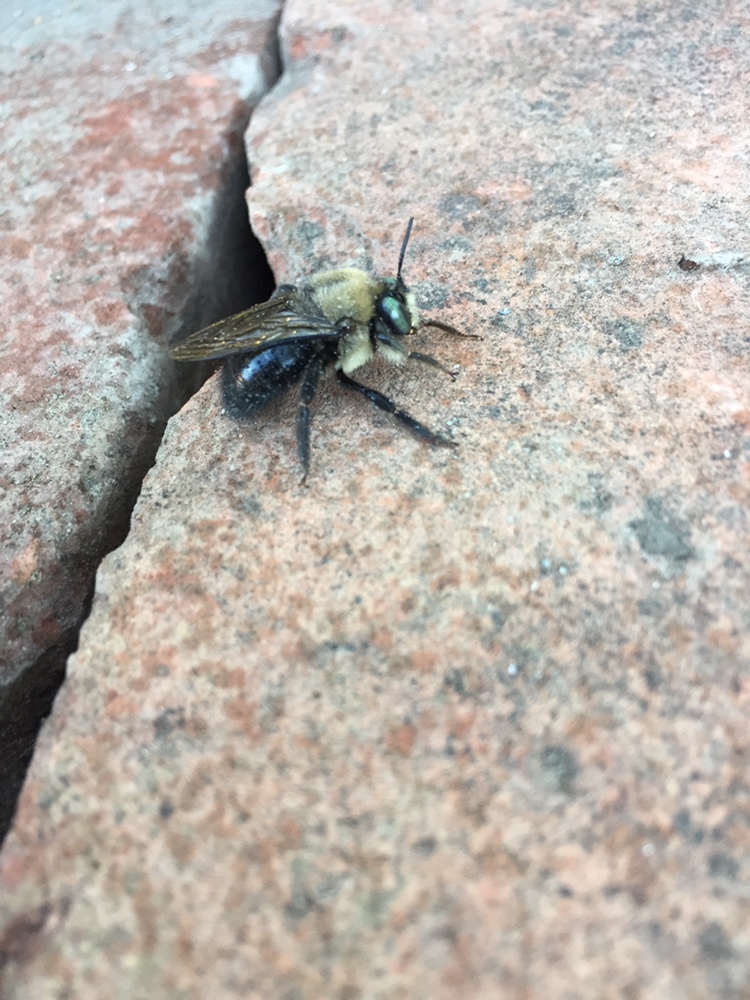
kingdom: Animalia
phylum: Arthropoda
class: Insecta
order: Hymenoptera
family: Apidae
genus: Xylocopa
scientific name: Xylocopa tabaniformis
